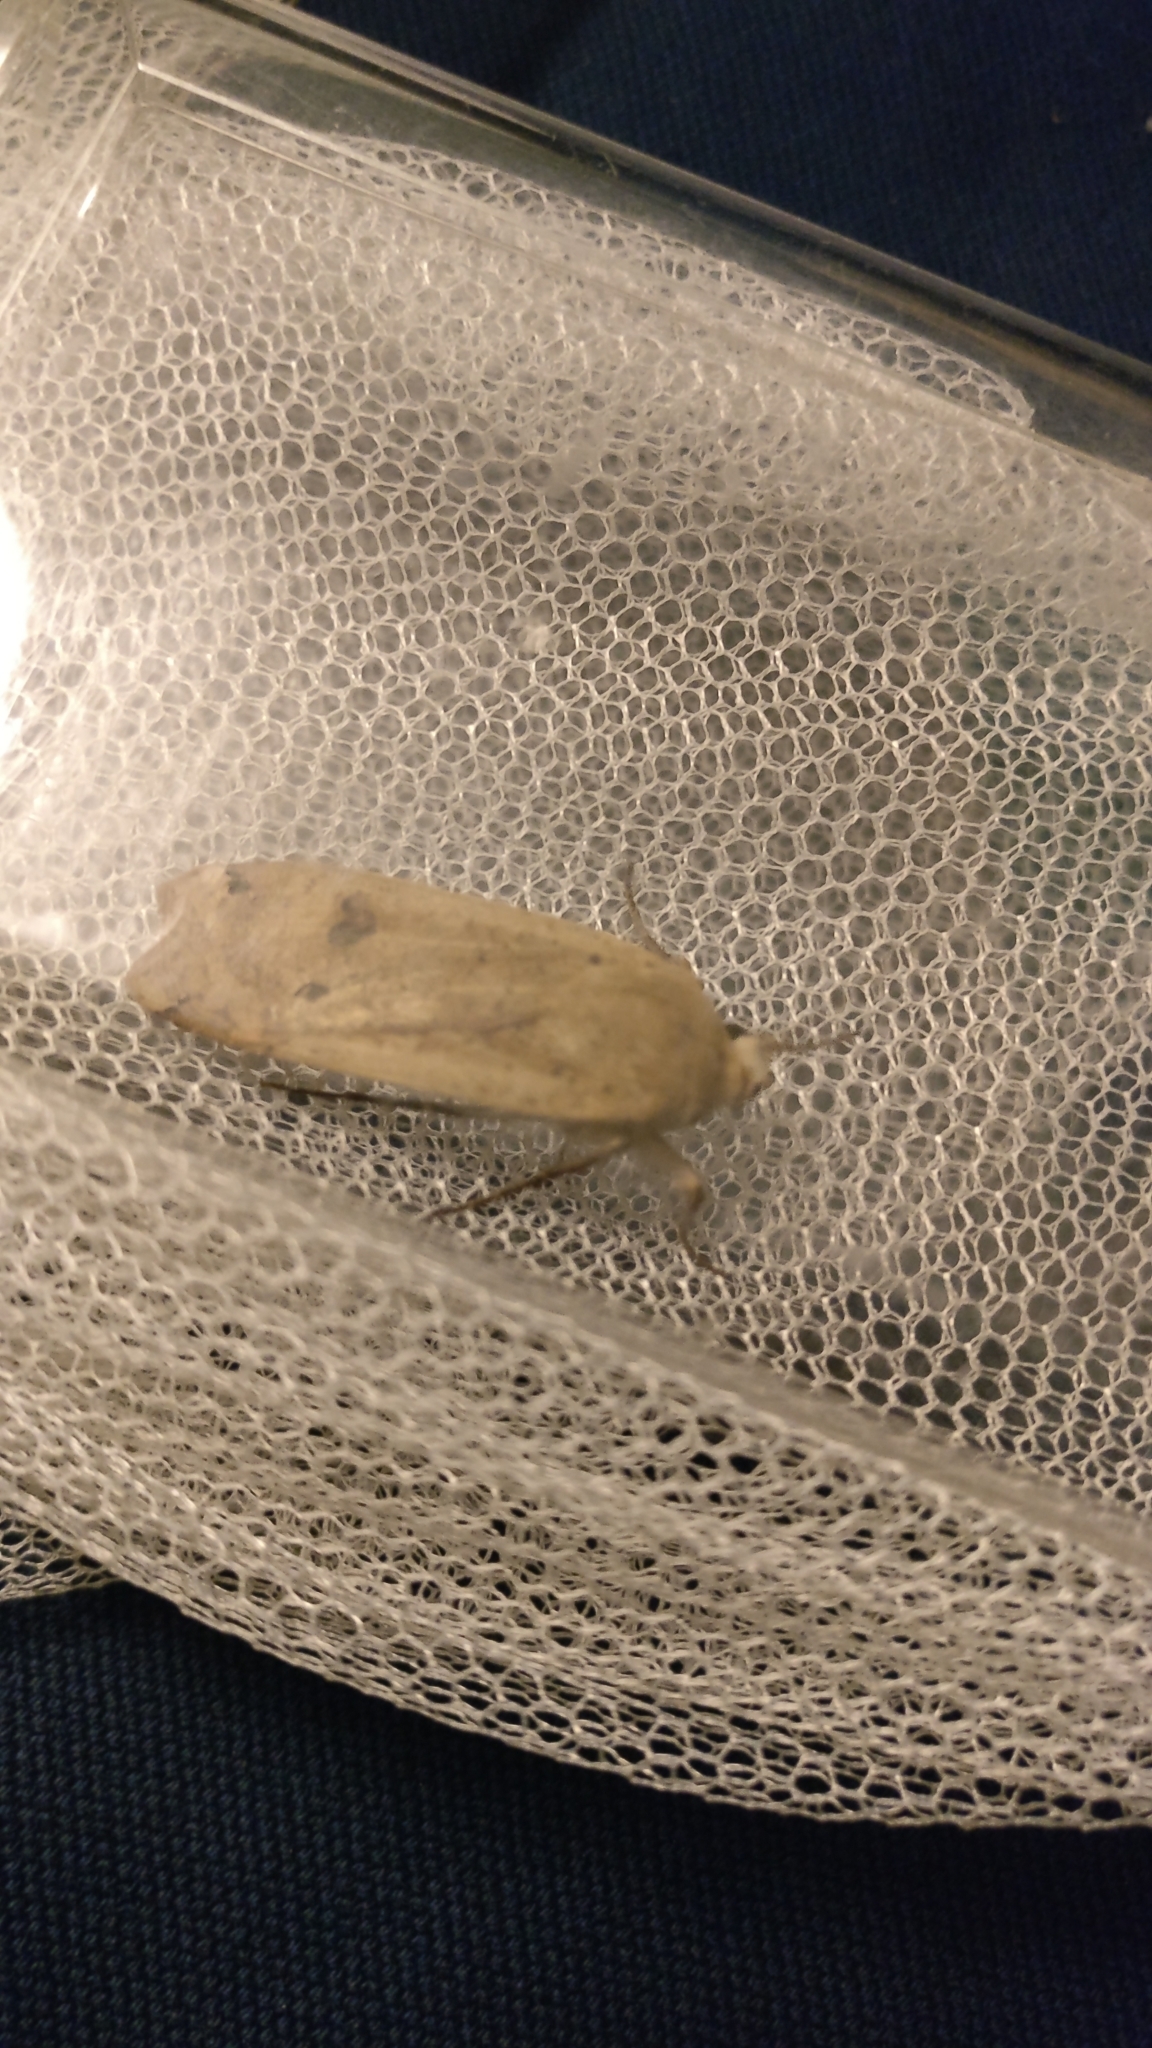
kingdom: Animalia
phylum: Arthropoda
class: Insecta
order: Lepidoptera
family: Noctuidae
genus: Noctua
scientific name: Noctua pronuba
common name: Large yellow underwing
